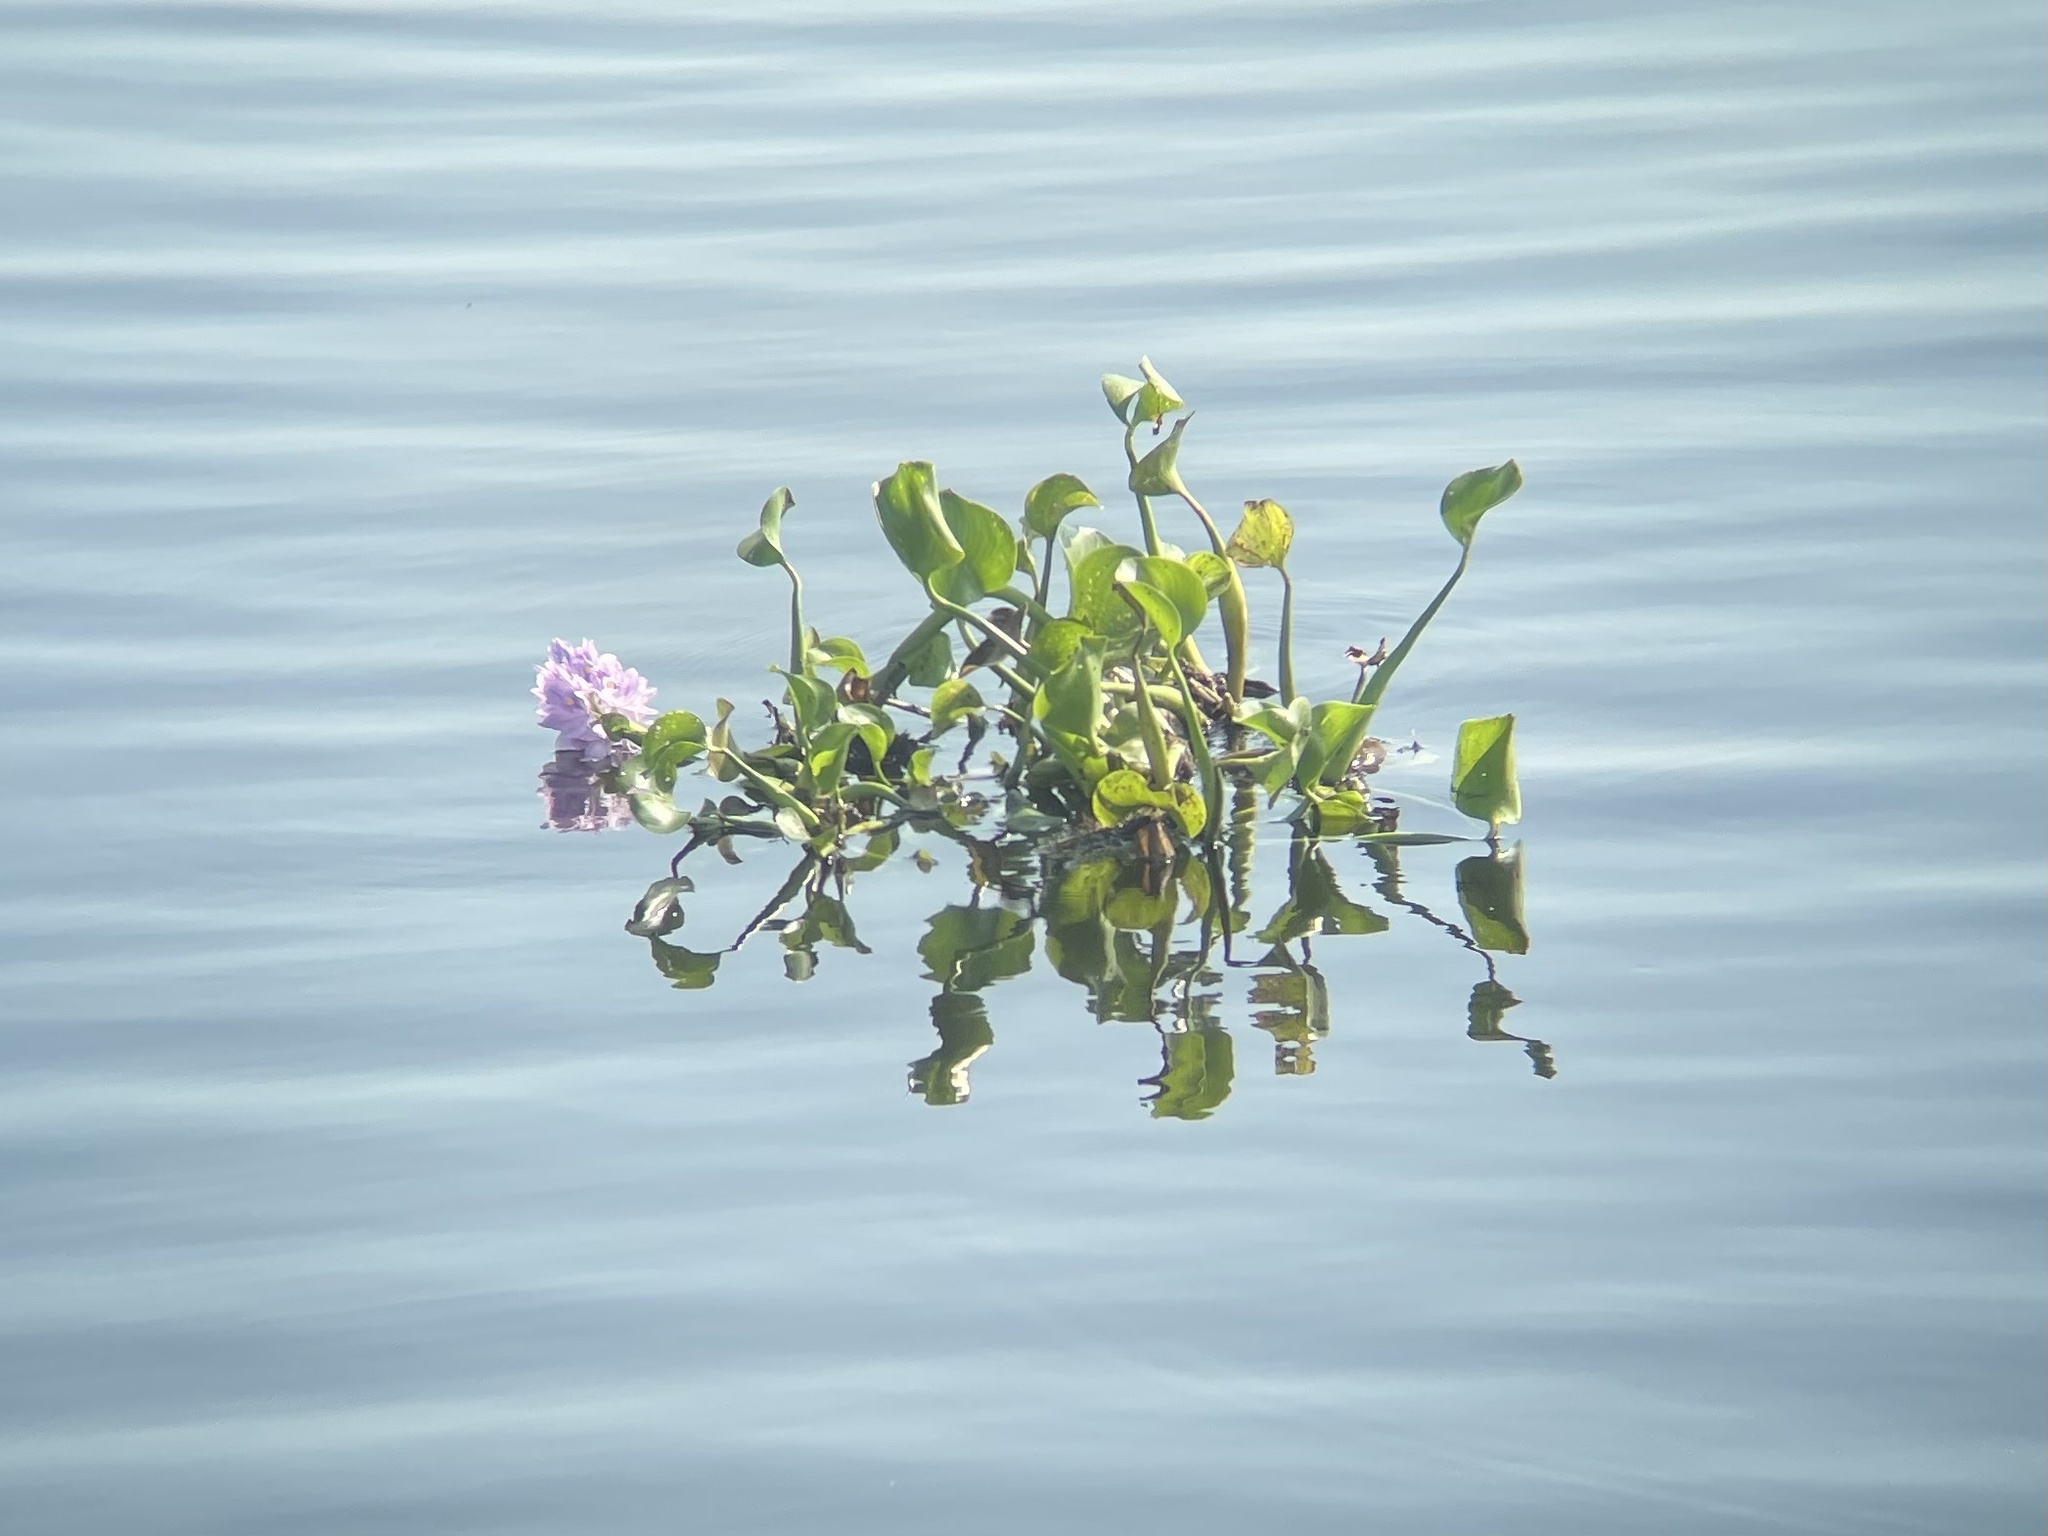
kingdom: Plantae
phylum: Tracheophyta
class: Liliopsida
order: Commelinales
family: Pontederiaceae
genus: Pontederia
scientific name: Pontederia crassipes
